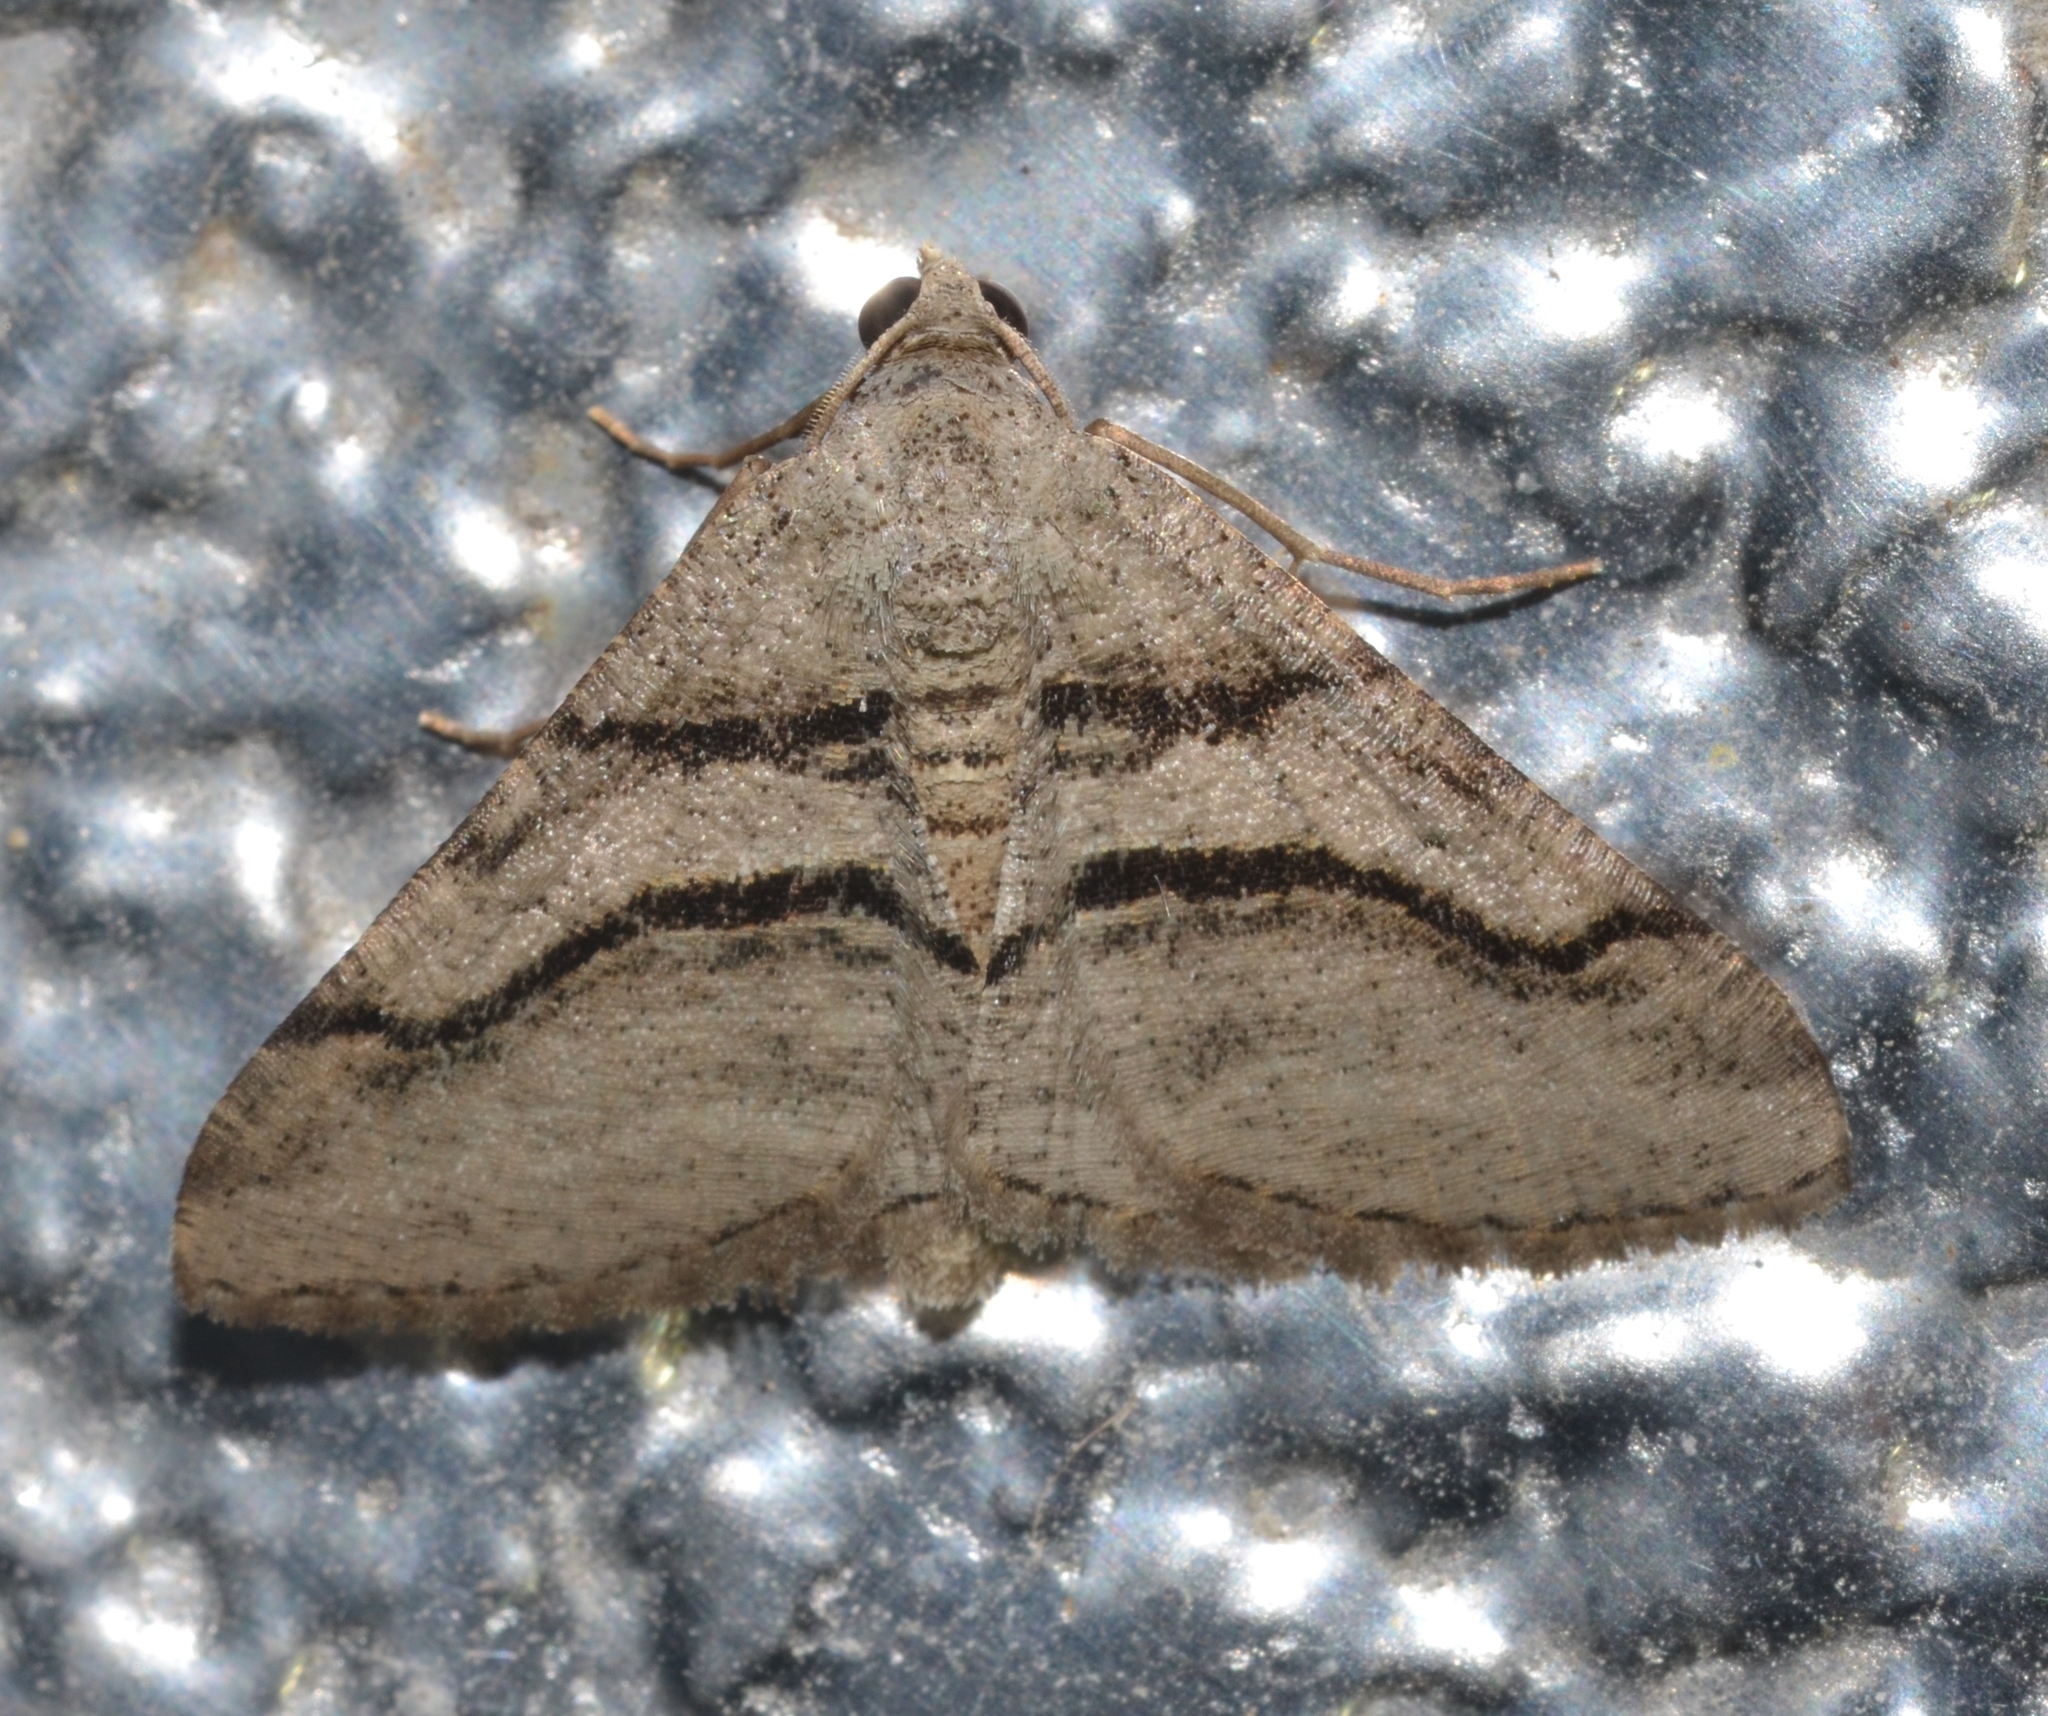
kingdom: Animalia
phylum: Arthropoda
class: Insecta
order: Lepidoptera
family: Geometridae
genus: Digrammia
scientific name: Digrammia continuata
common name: Curve-lined angle
